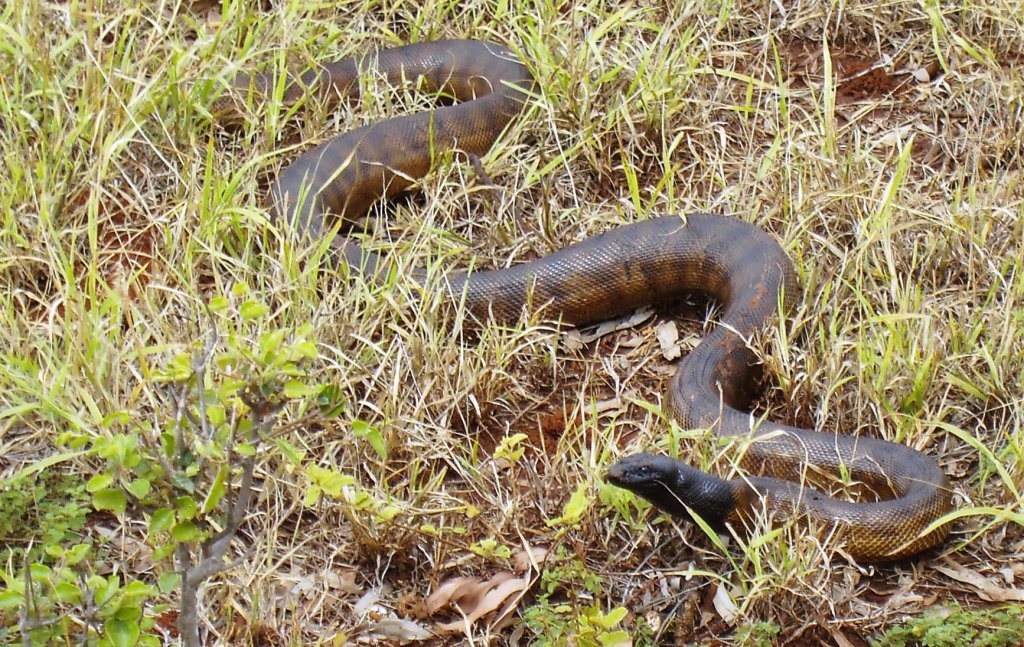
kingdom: Animalia
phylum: Chordata
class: Squamata
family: Pythonidae
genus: Aspidites
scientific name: Aspidites melanocephalus
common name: Black-headed python
